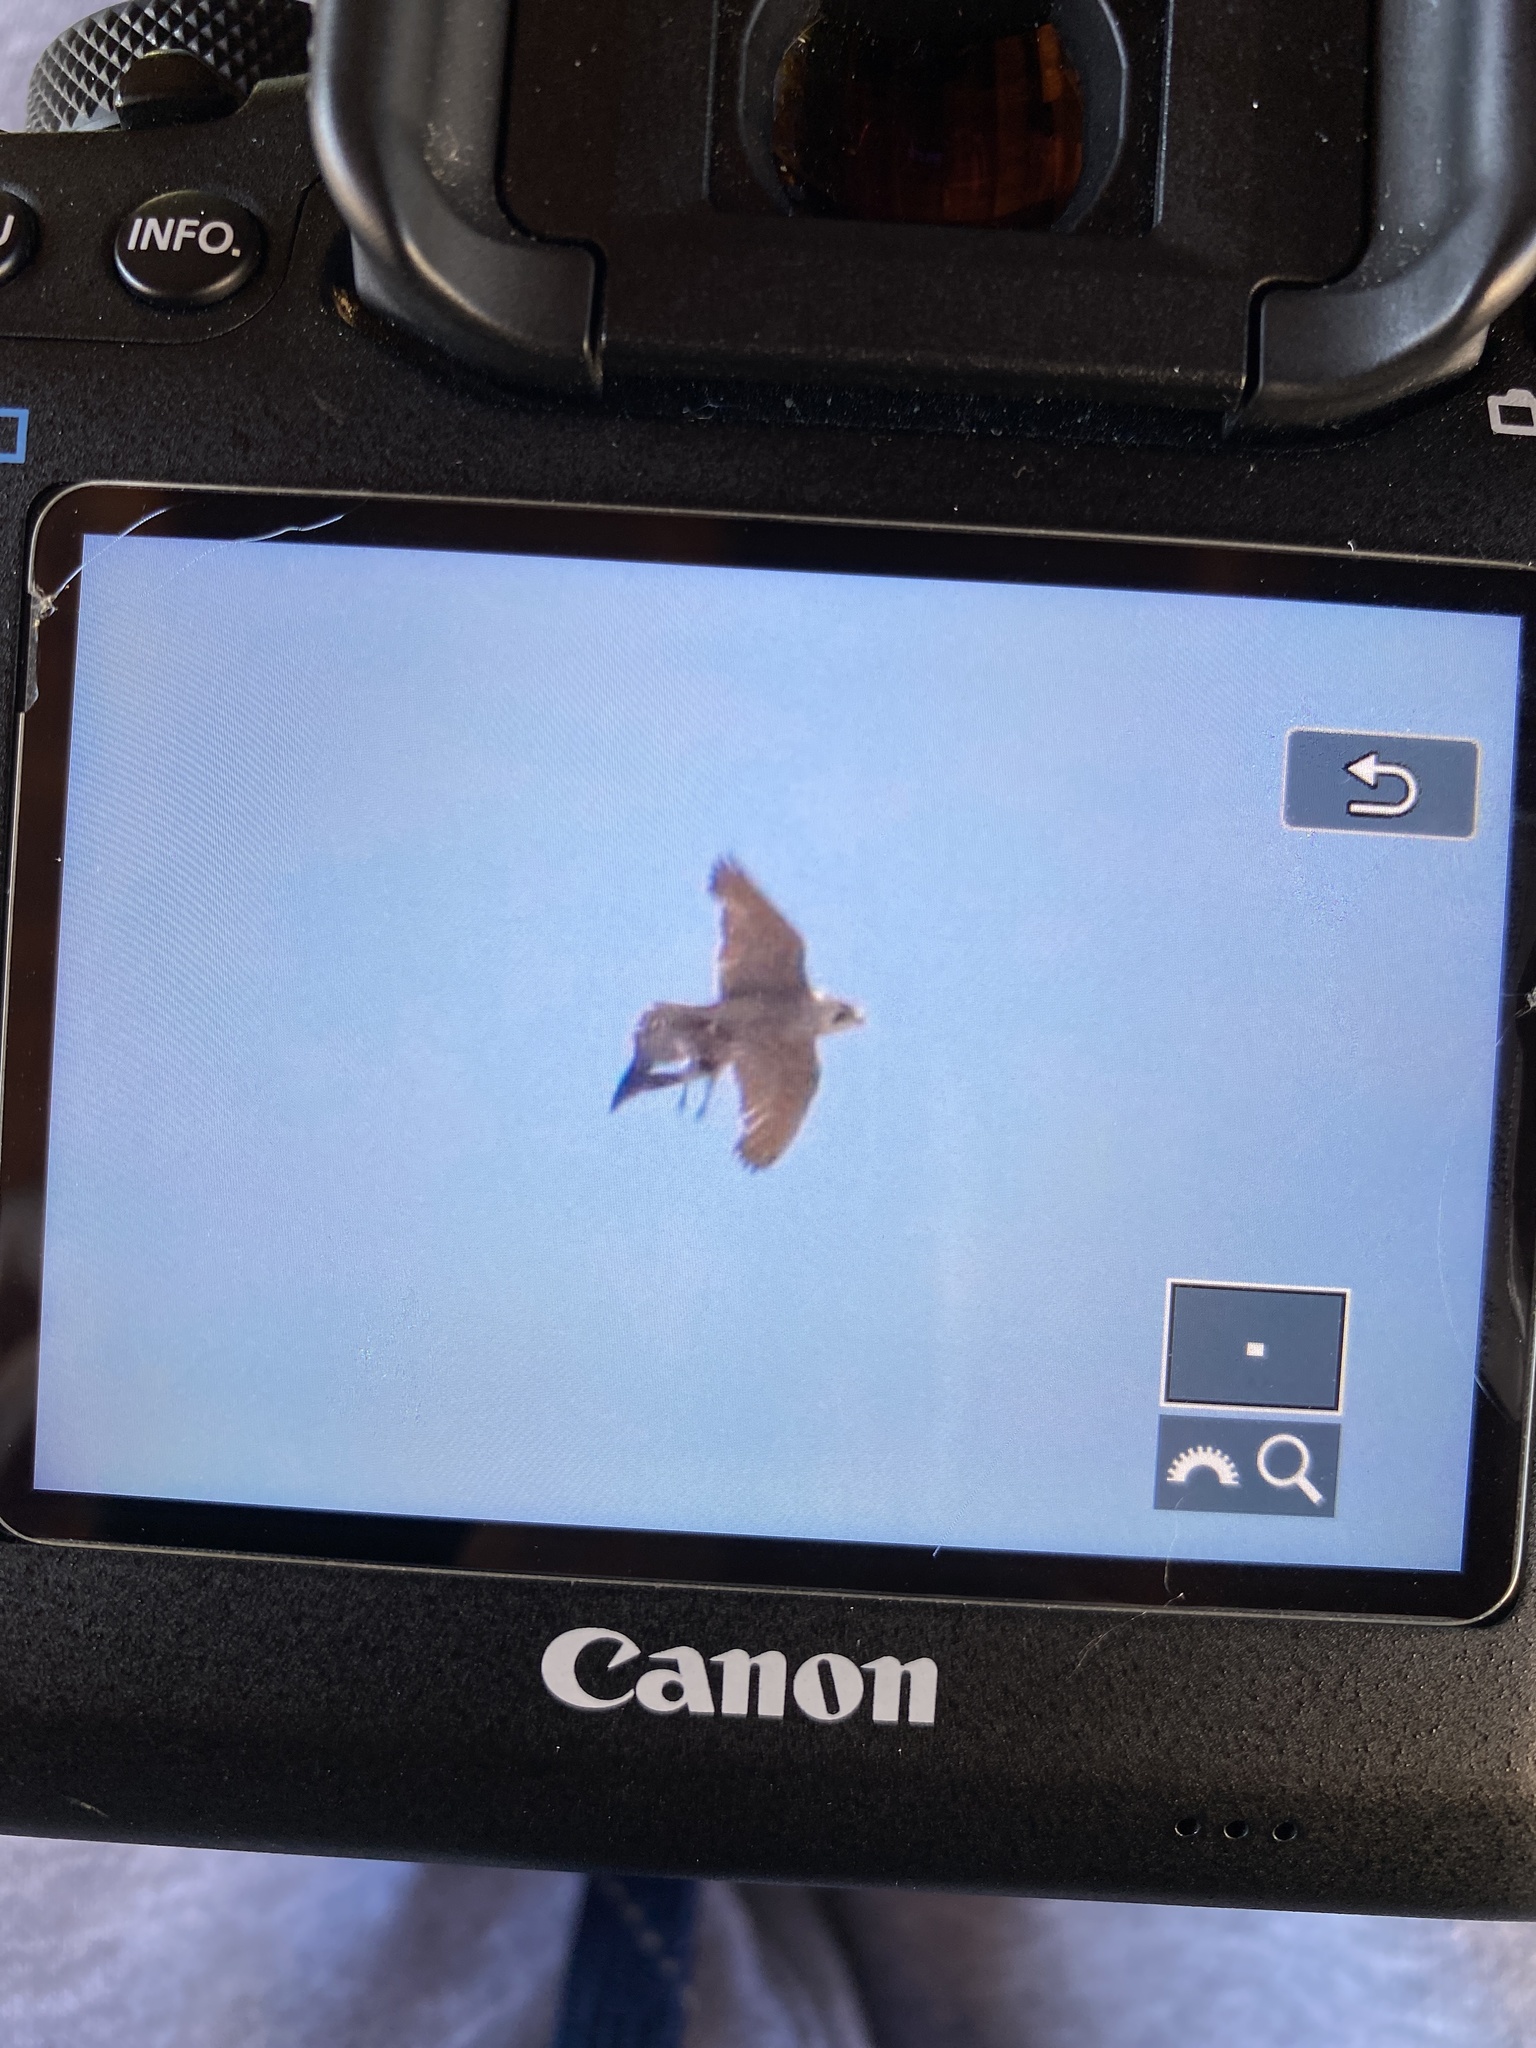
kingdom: Animalia
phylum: Chordata
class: Aves
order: Falconiformes
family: Falconidae
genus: Falco
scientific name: Falco peregrinus
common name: Peregrine falcon
